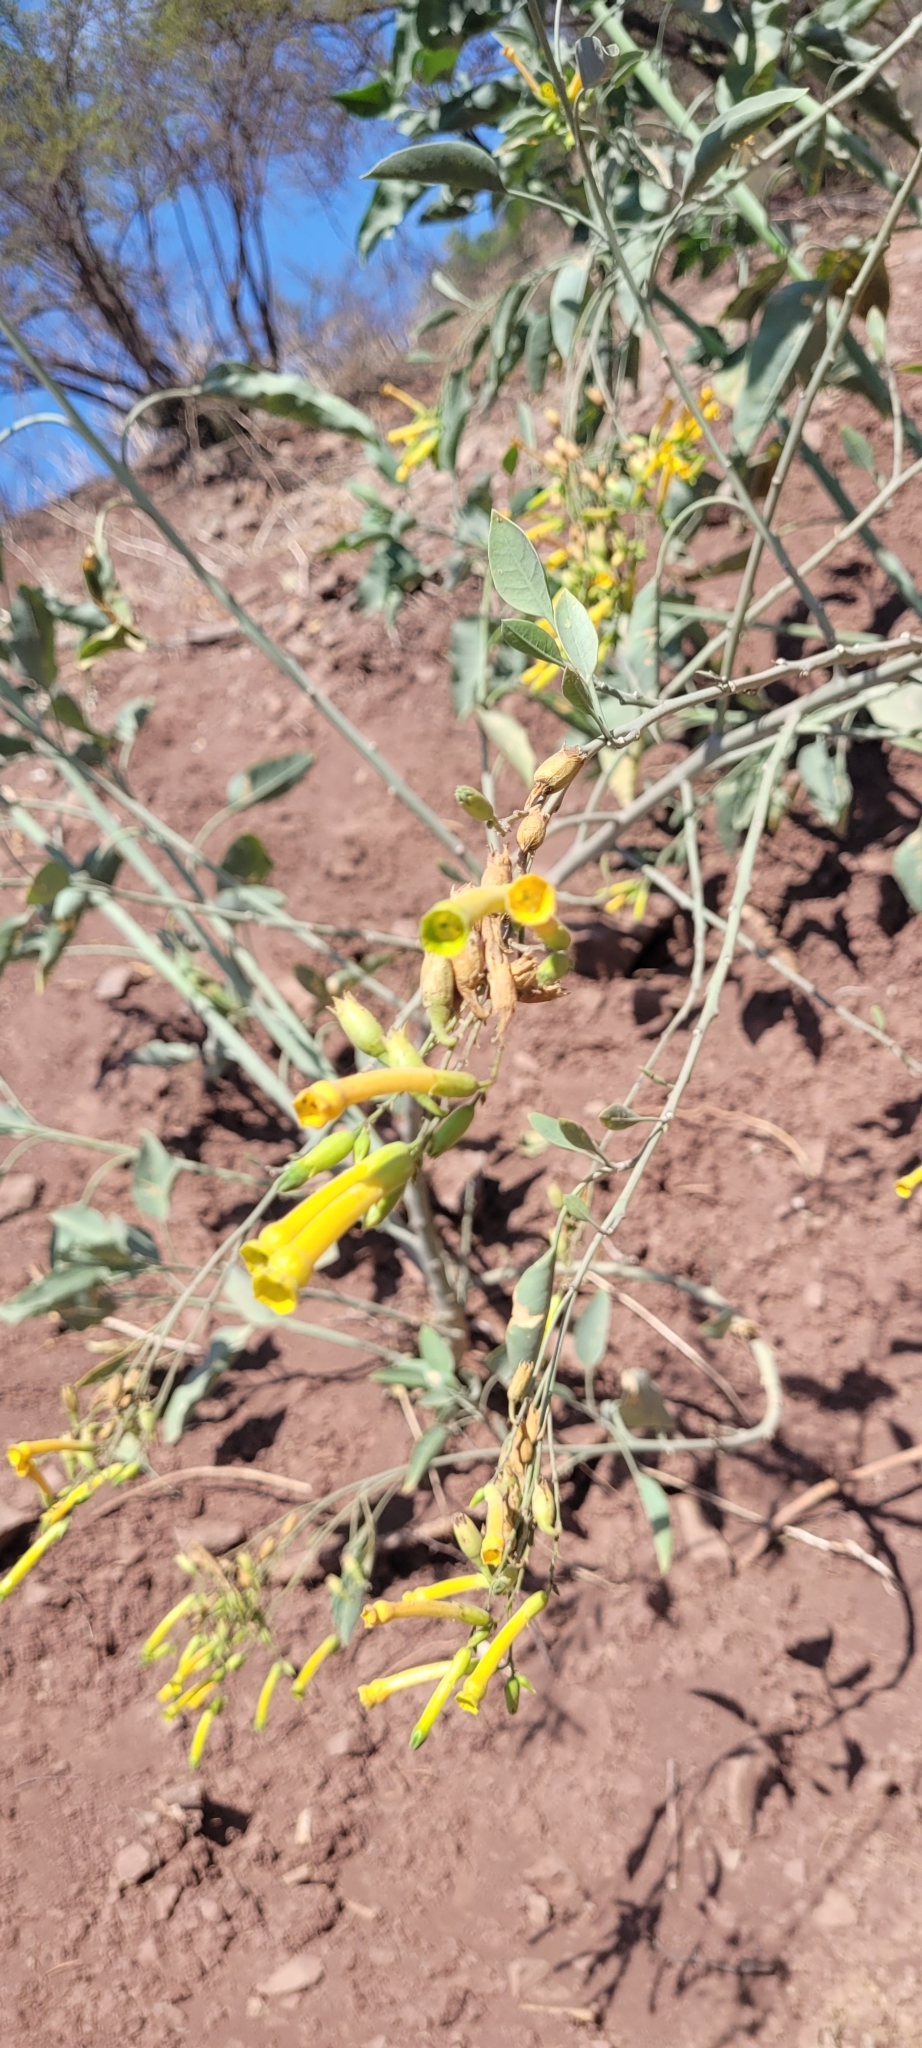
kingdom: Plantae
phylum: Tracheophyta
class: Magnoliopsida
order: Solanales
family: Solanaceae
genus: Nicotiana
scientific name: Nicotiana glauca
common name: Tree tobacco
